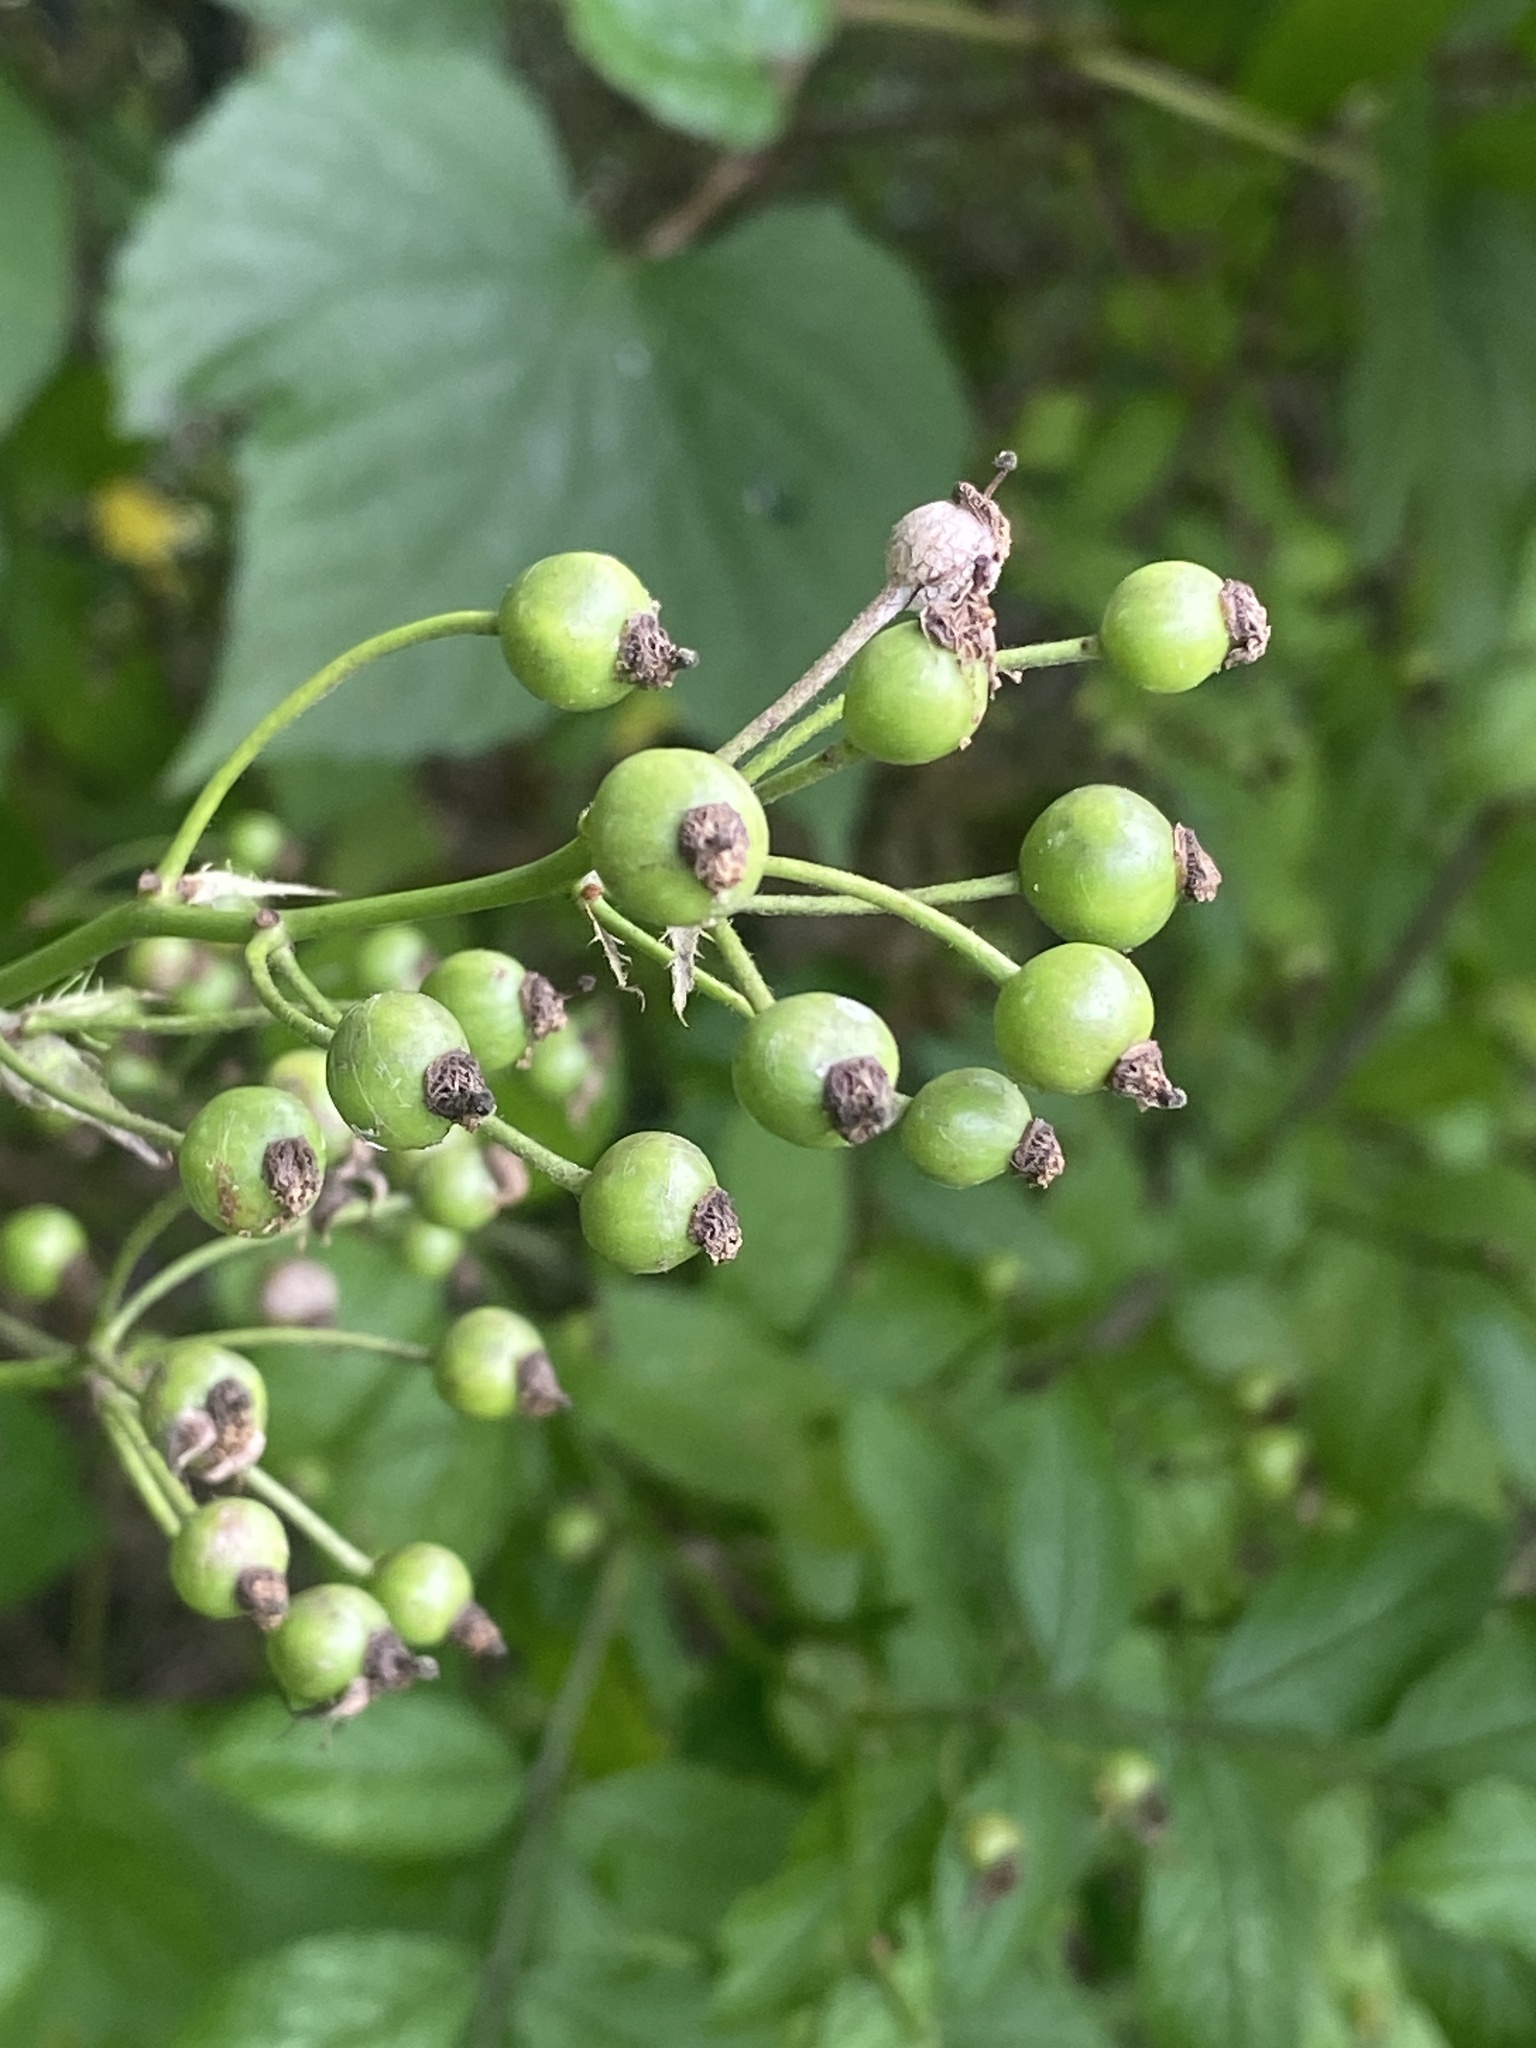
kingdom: Plantae
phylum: Tracheophyta
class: Magnoliopsida
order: Rosales
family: Rosaceae
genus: Rosa
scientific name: Rosa multiflora
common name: Multiflora rose
